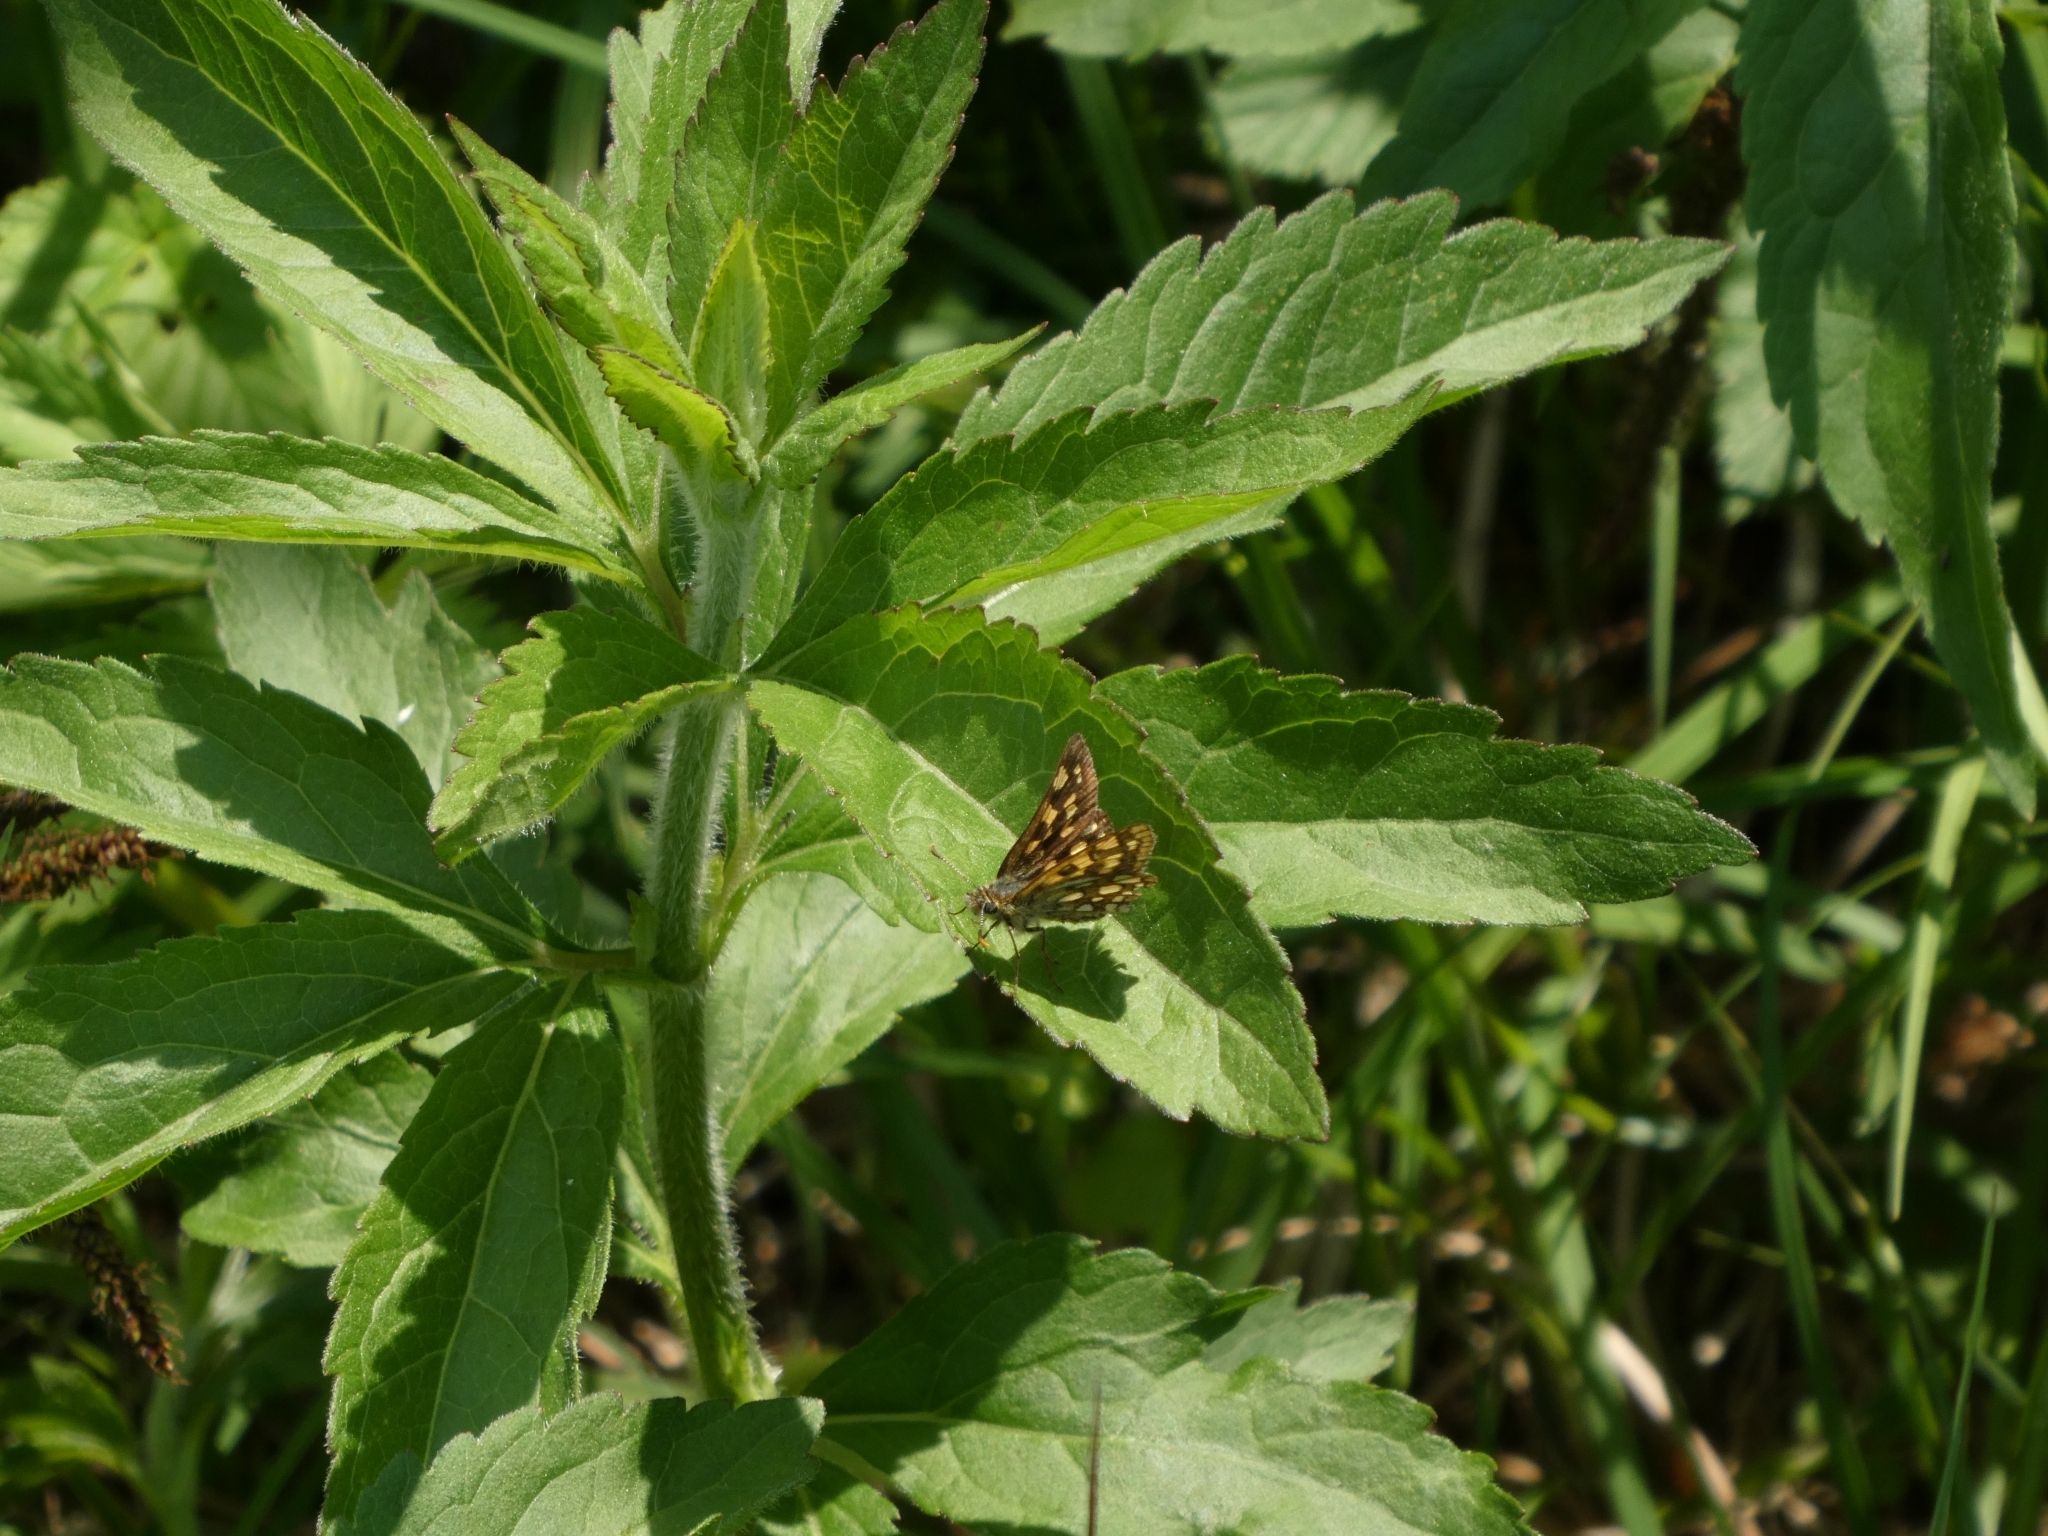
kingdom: Animalia
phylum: Arthropoda
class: Insecta
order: Lepidoptera
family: Hesperiidae
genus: Carterocephalus
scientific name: Carterocephalus palaemon
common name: Chequered skipper
